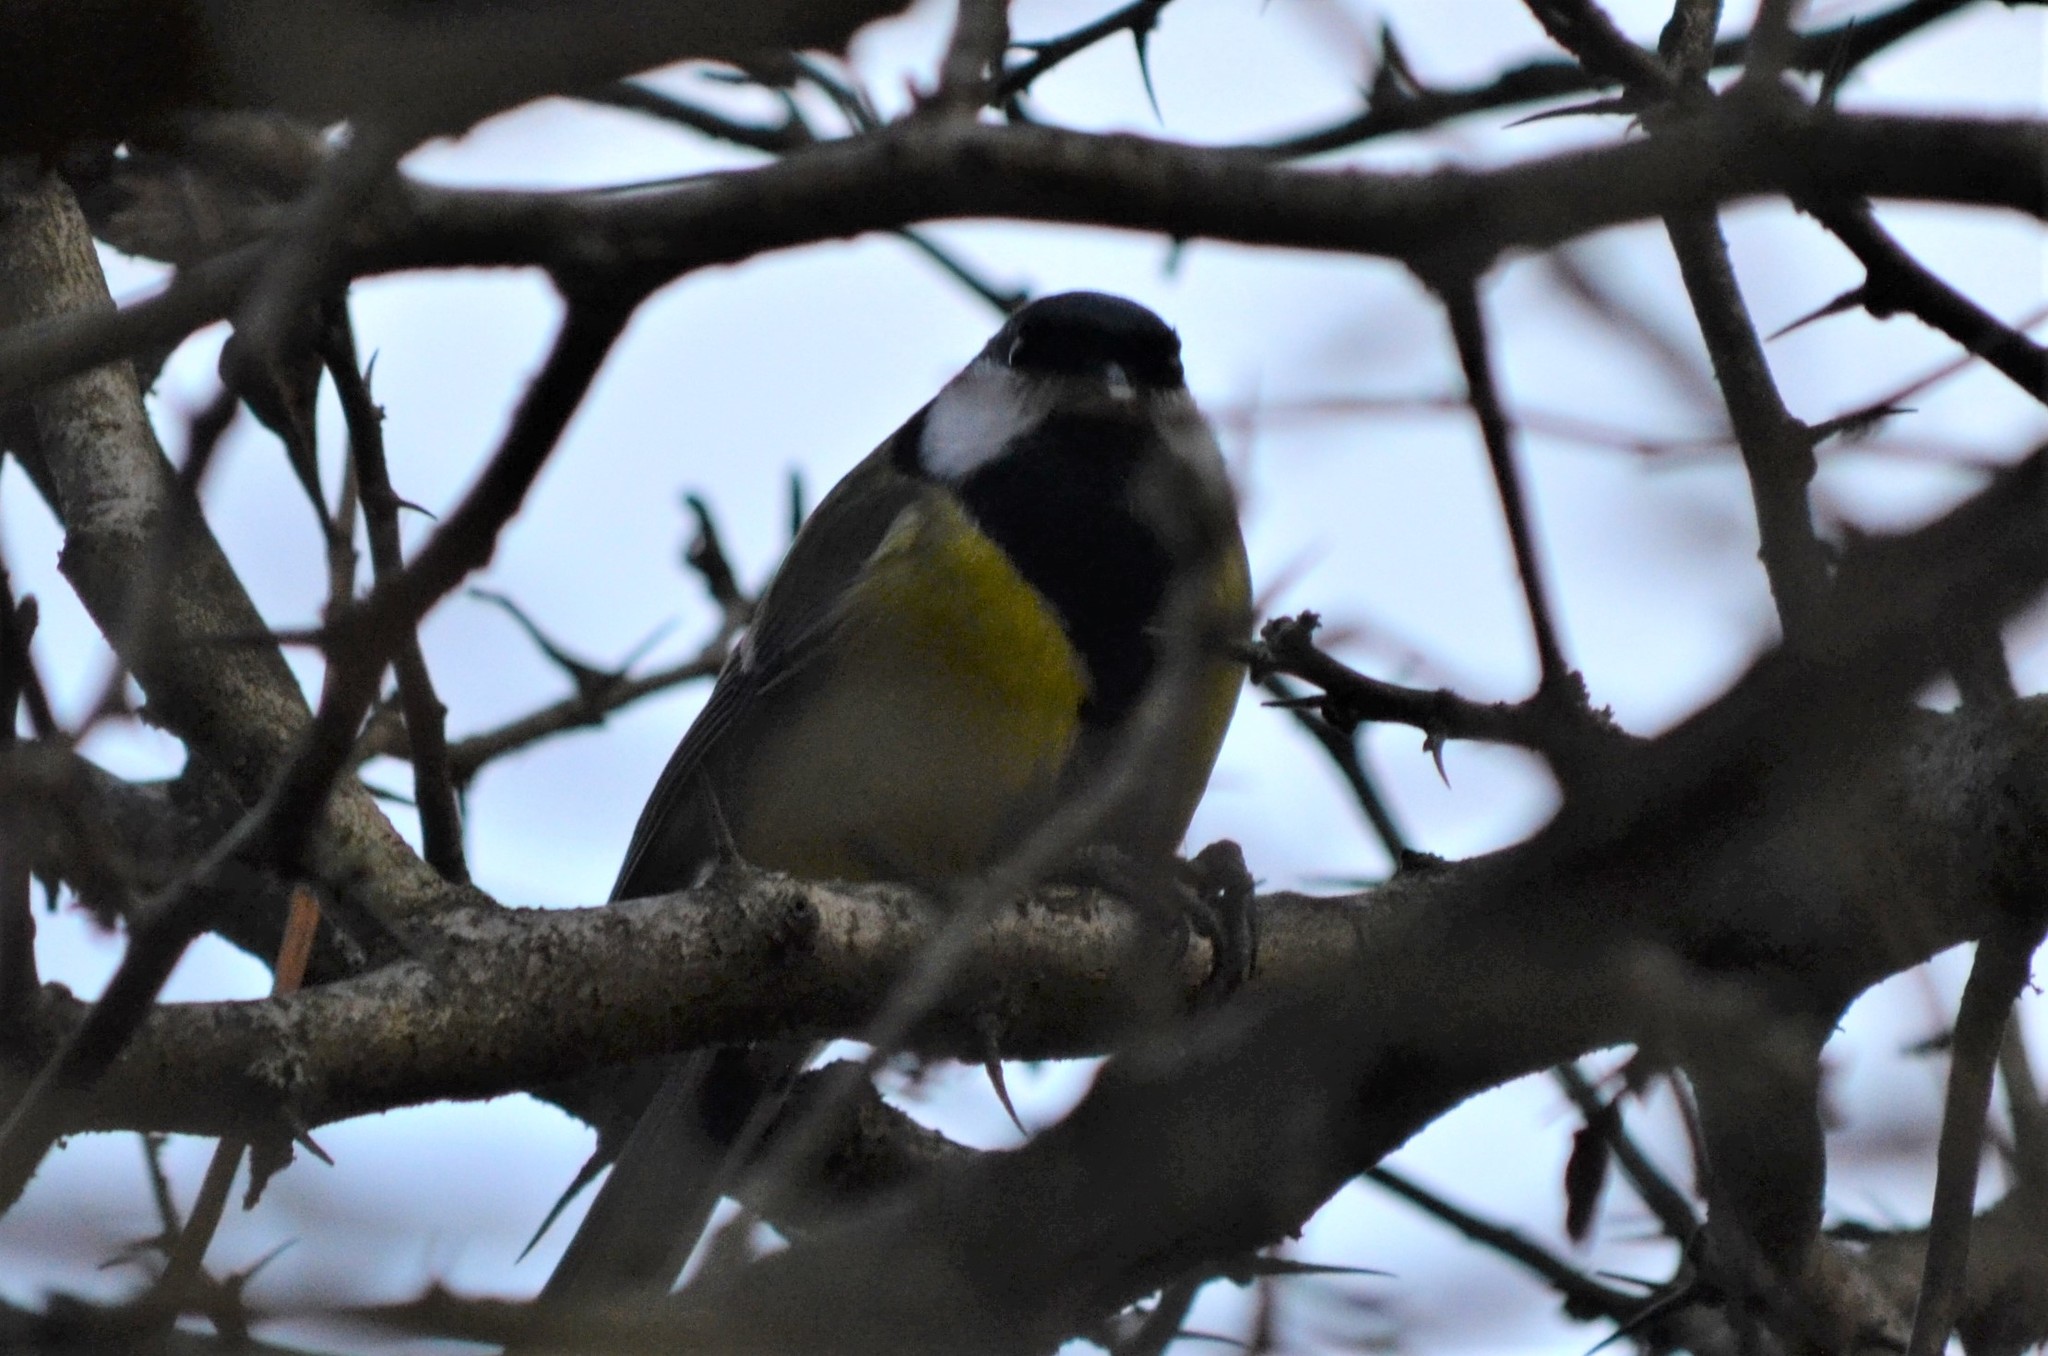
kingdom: Animalia
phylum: Chordata
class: Aves
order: Passeriformes
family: Paridae
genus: Parus
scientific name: Parus major
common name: Great tit
